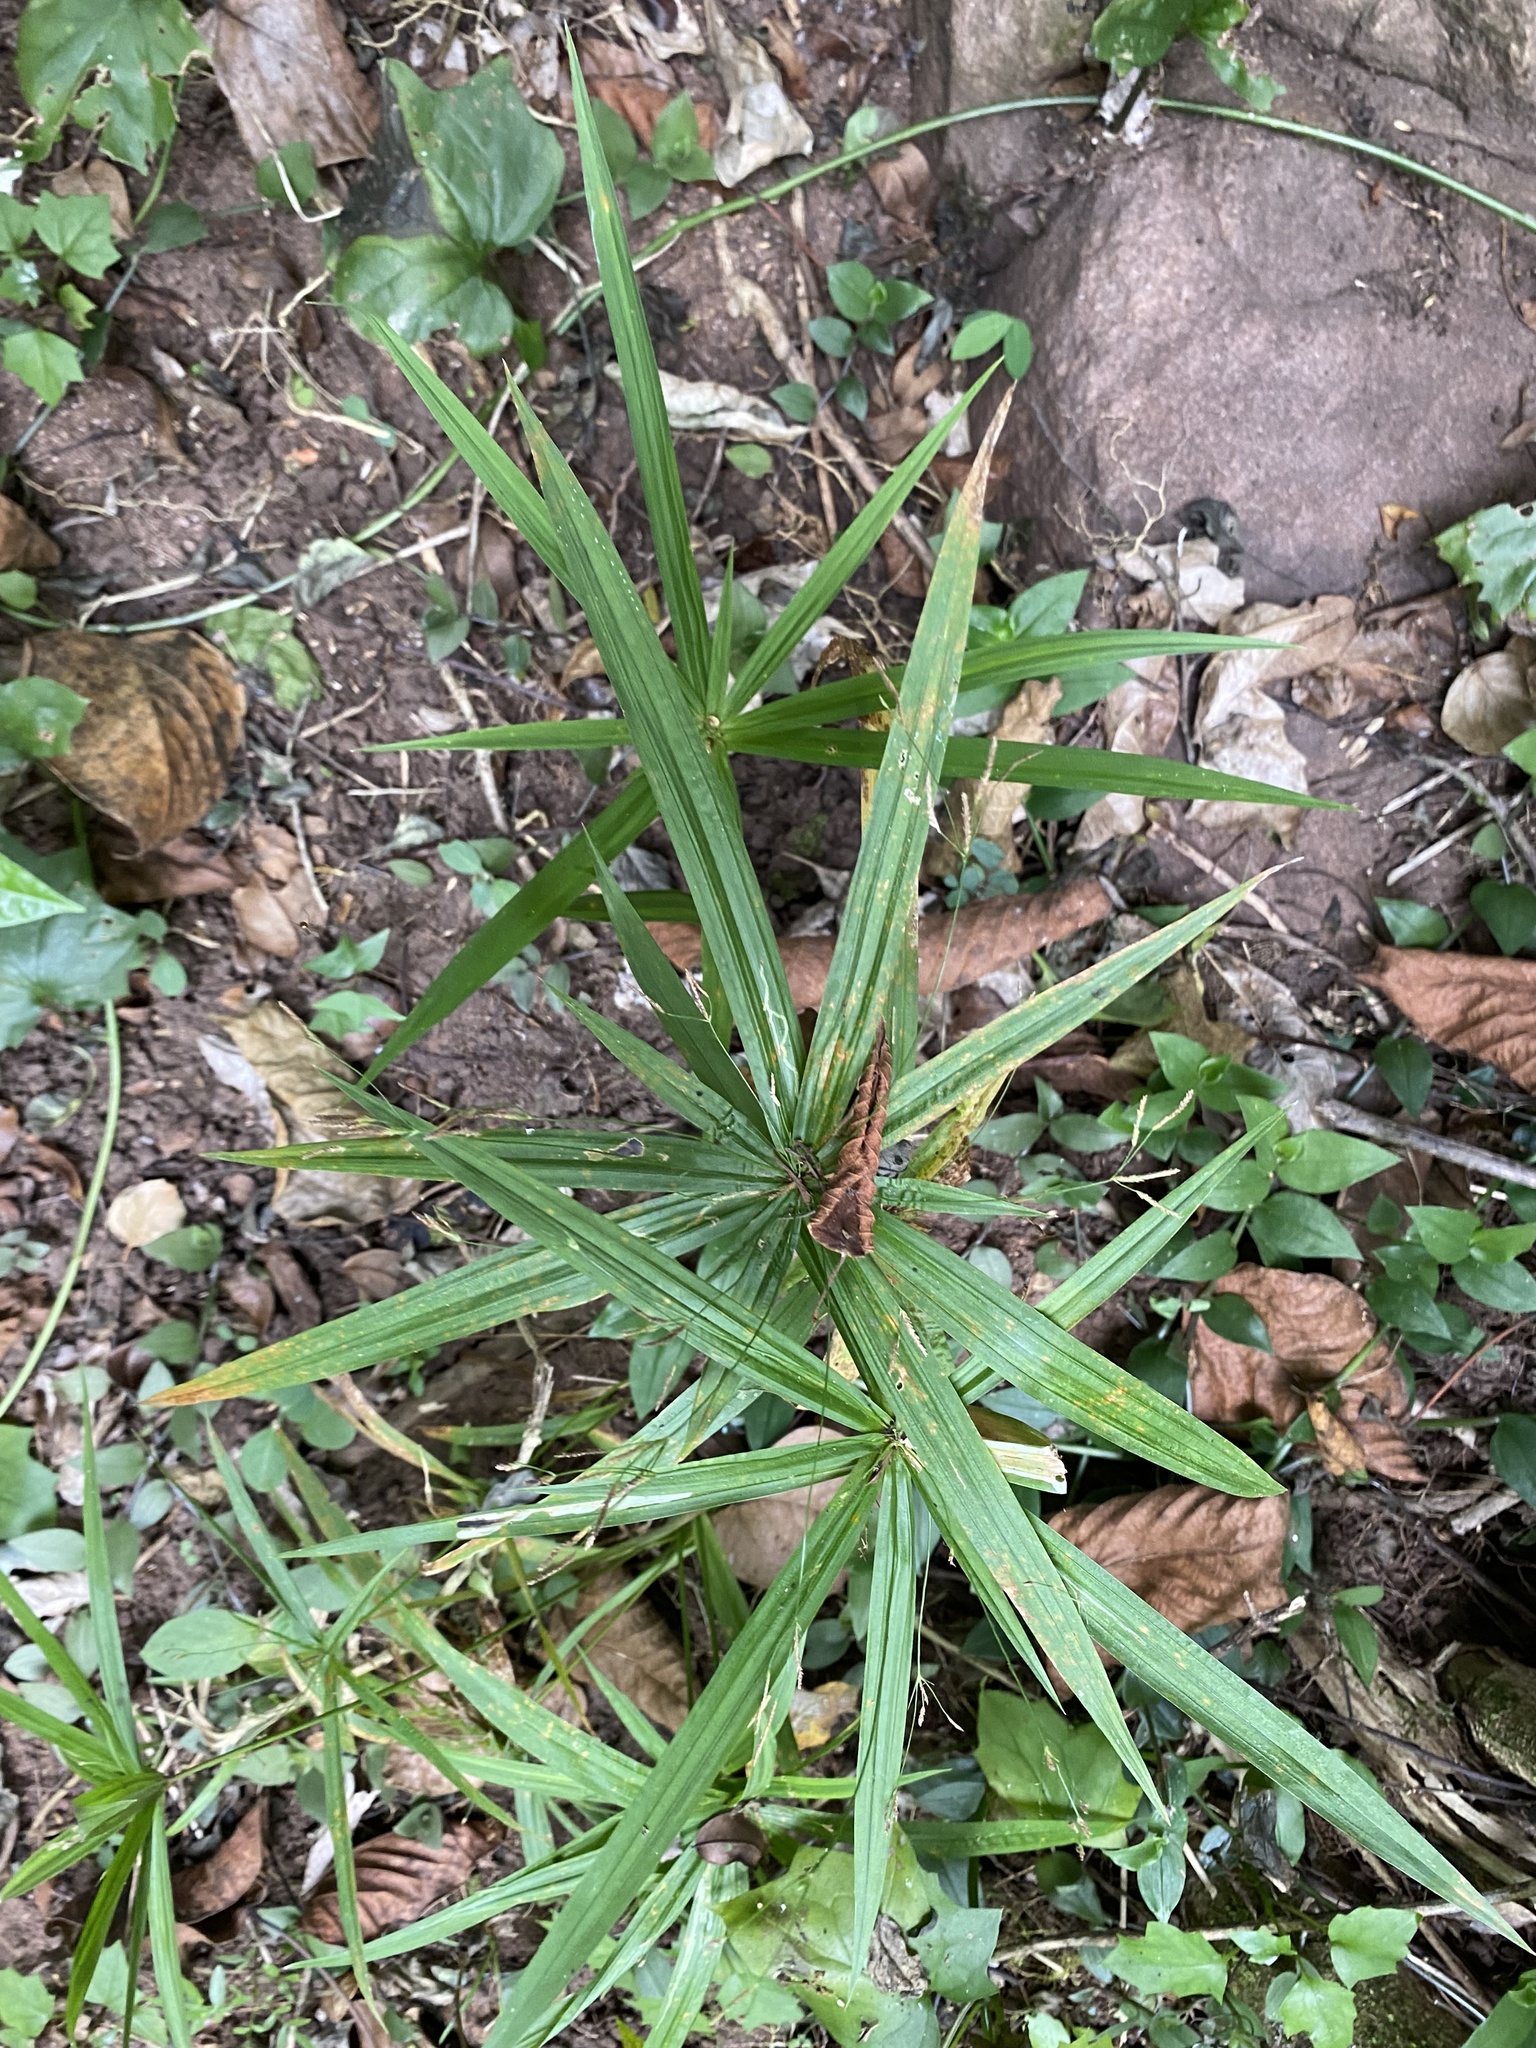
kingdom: Plantae
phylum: Tracheophyta
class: Liliopsida
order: Poales
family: Cyperaceae
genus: Cyperus
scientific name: Cyperus albostriatus
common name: Dwarf umbrella-grass
